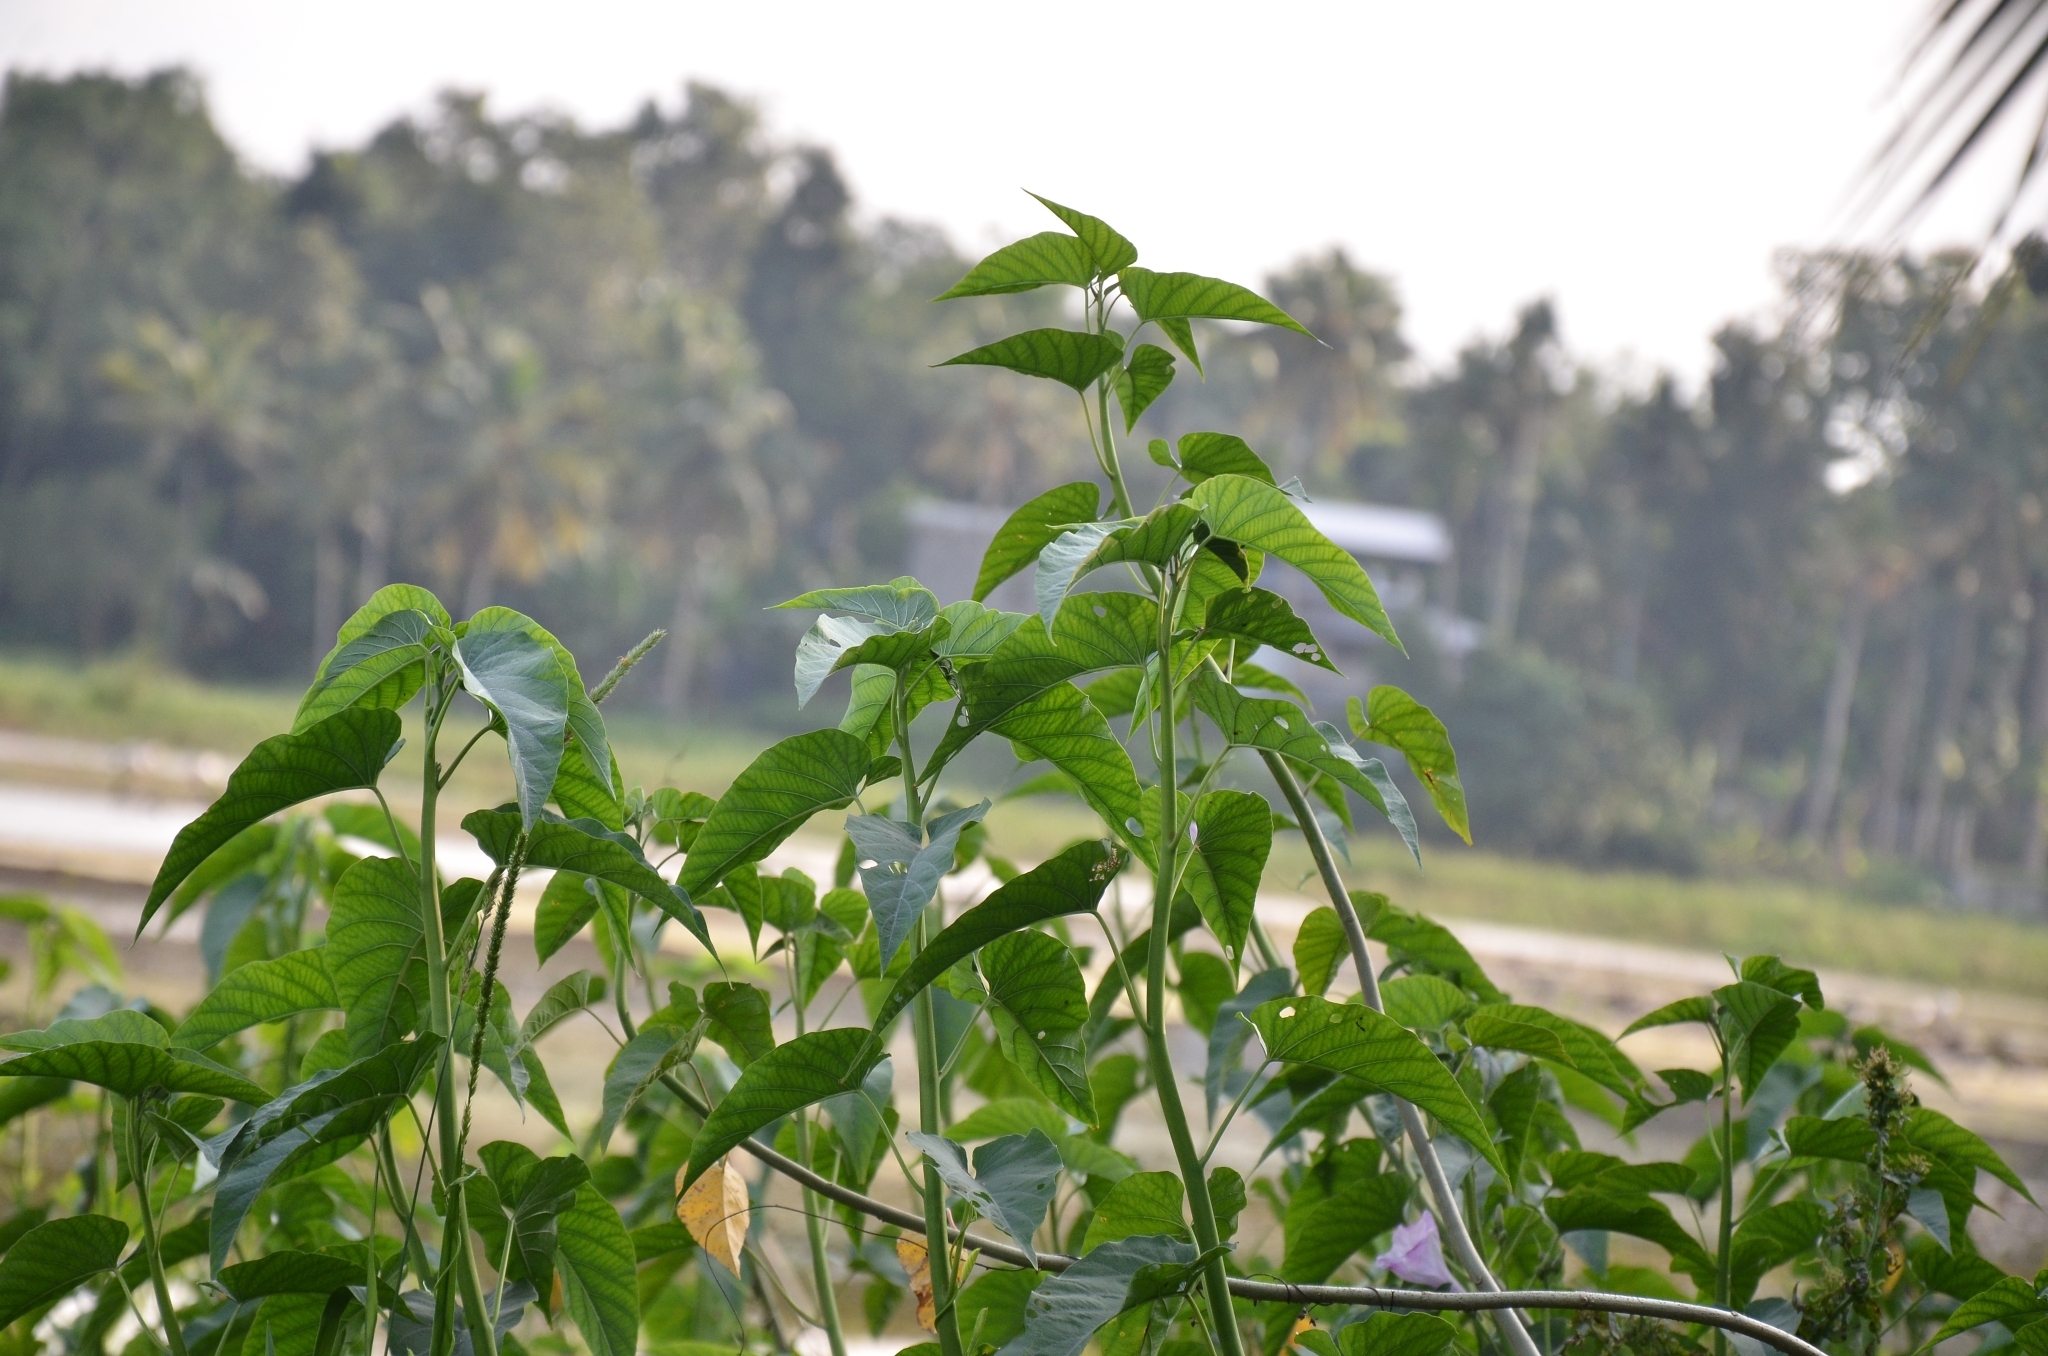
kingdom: Plantae
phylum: Tracheophyta
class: Magnoliopsida
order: Solanales
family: Convolvulaceae
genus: Ipomoea
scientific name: Ipomoea carnea
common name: Morning-glory
